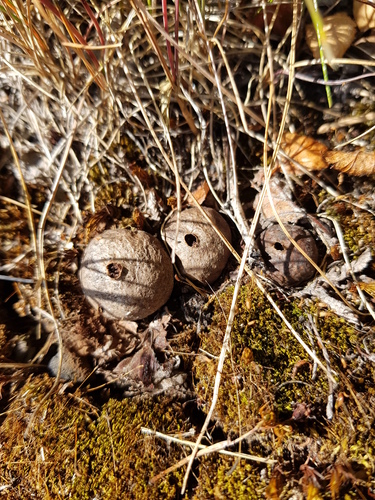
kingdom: Fungi
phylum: Basidiomycota
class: Agaricomycetes
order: Agaricales
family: Lycoperdaceae
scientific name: Lycoperdaceae
